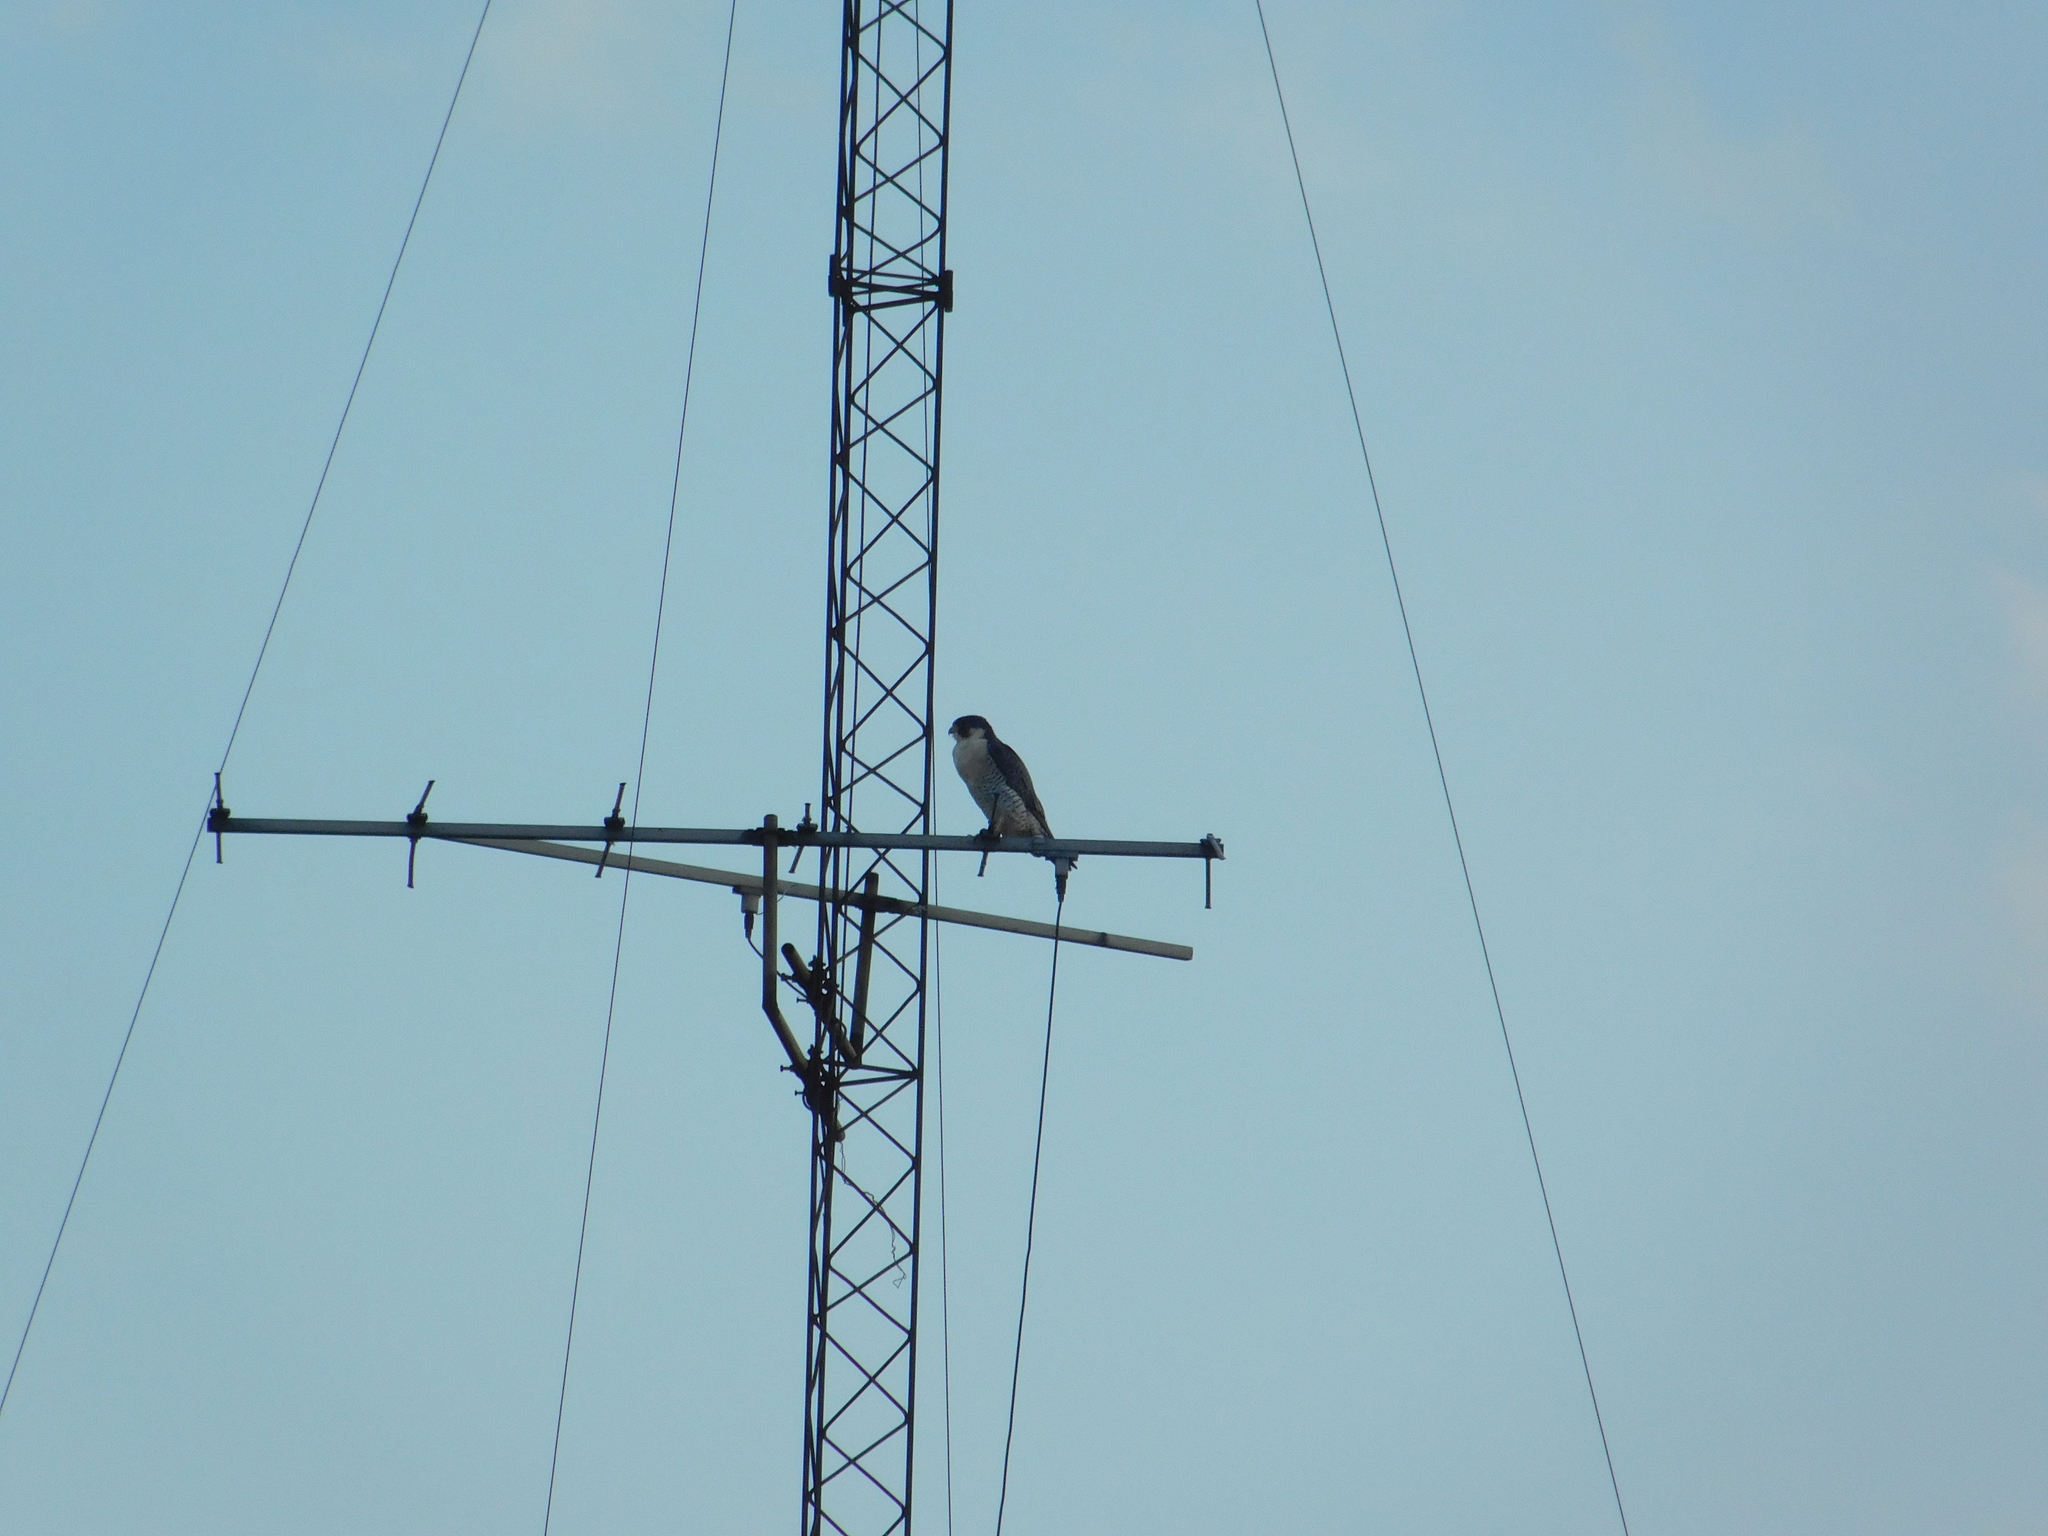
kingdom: Animalia
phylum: Chordata
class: Aves
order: Falconiformes
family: Falconidae
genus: Falco
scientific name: Falco peregrinus
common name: Peregrine falcon
